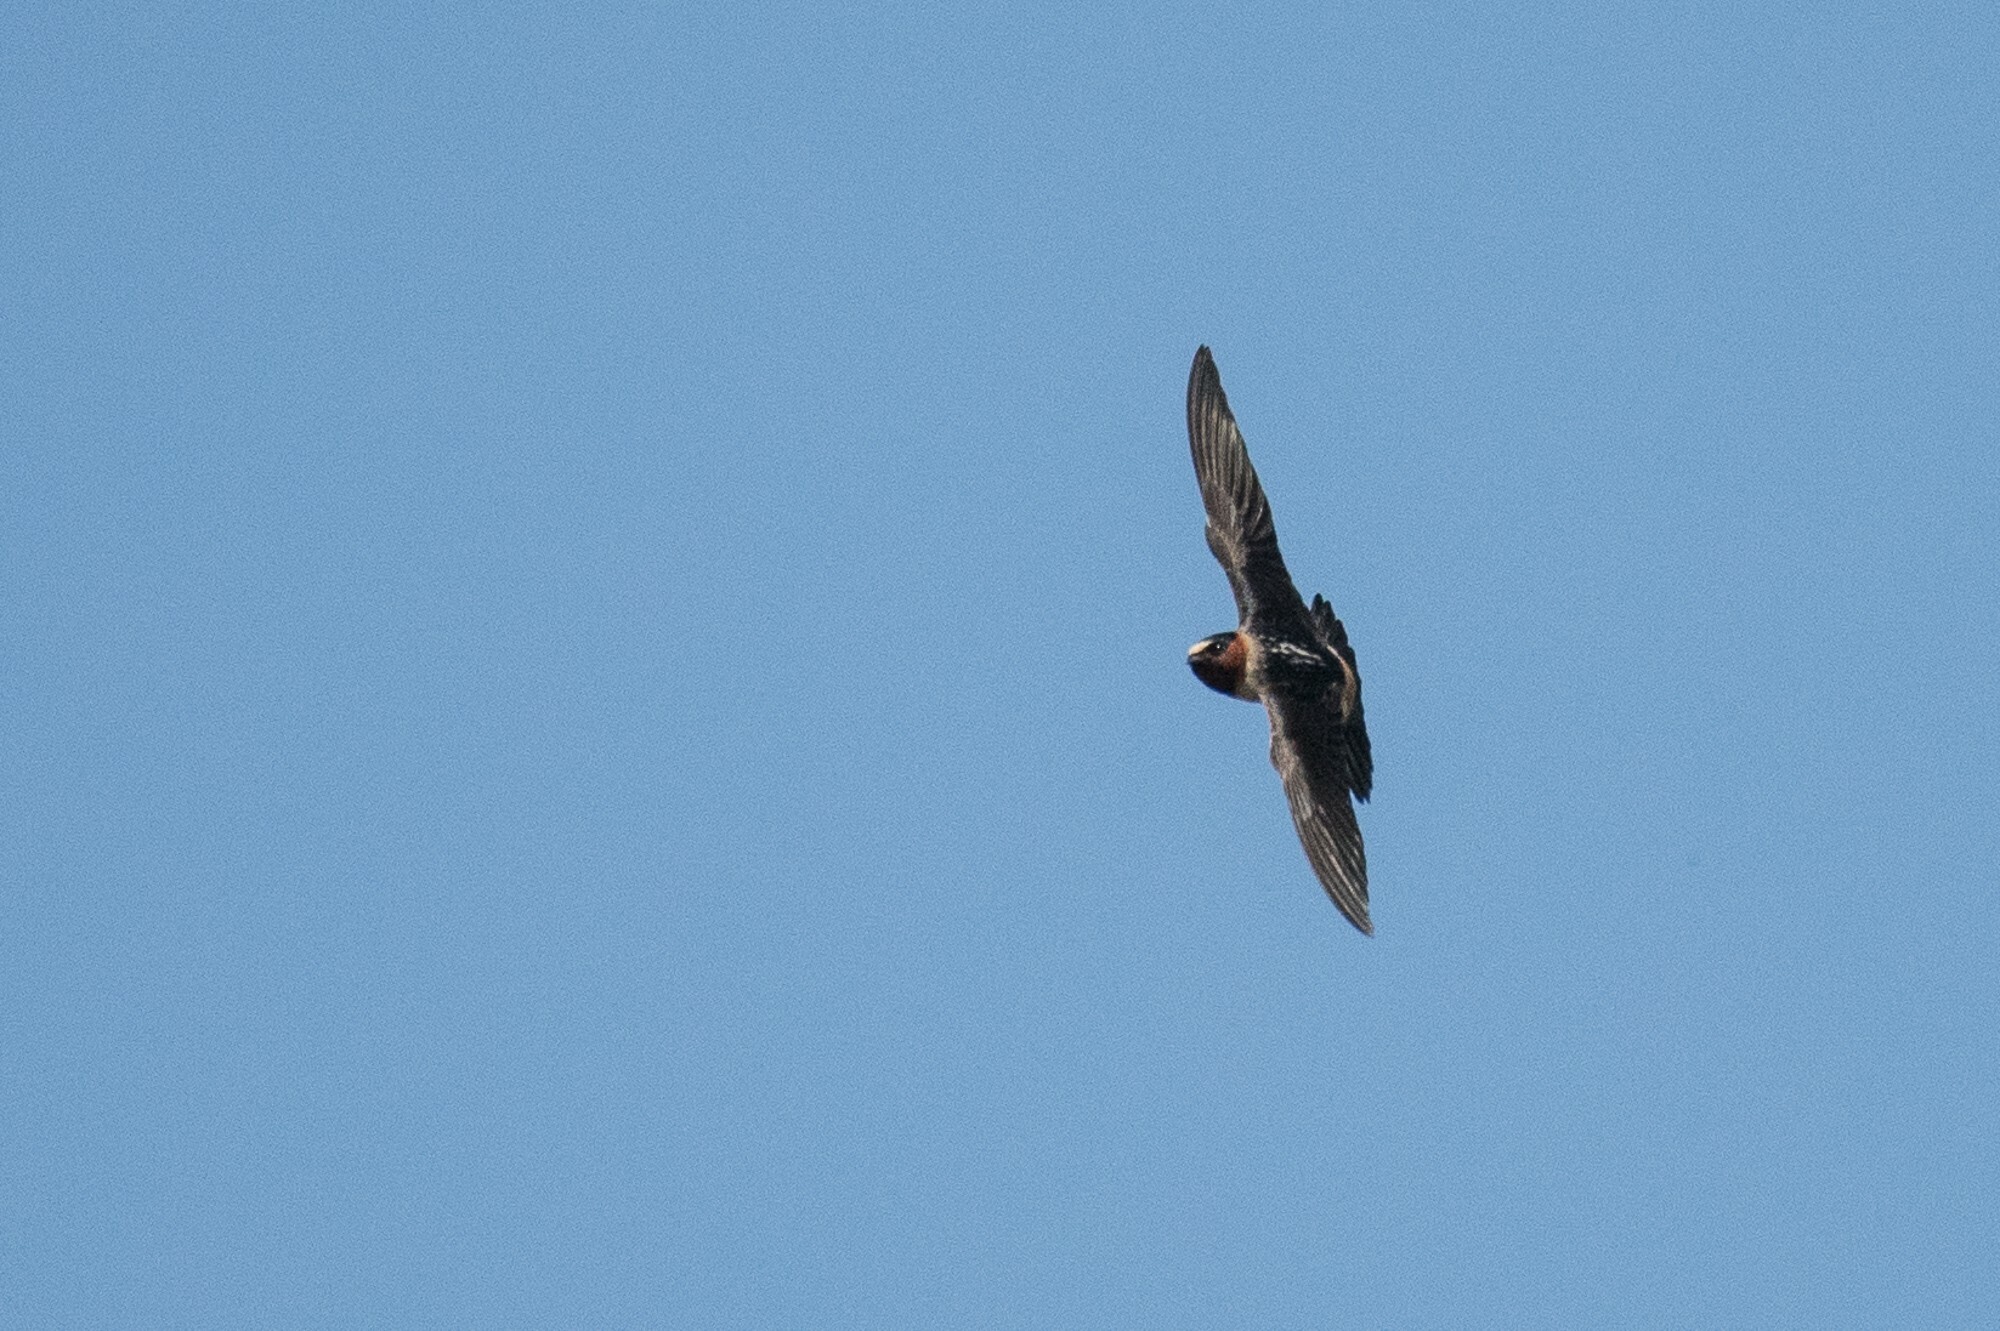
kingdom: Animalia
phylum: Chordata
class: Aves
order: Passeriformes
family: Hirundinidae
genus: Petrochelidon
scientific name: Petrochelidon pyrrhonota
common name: American cliff swallow
